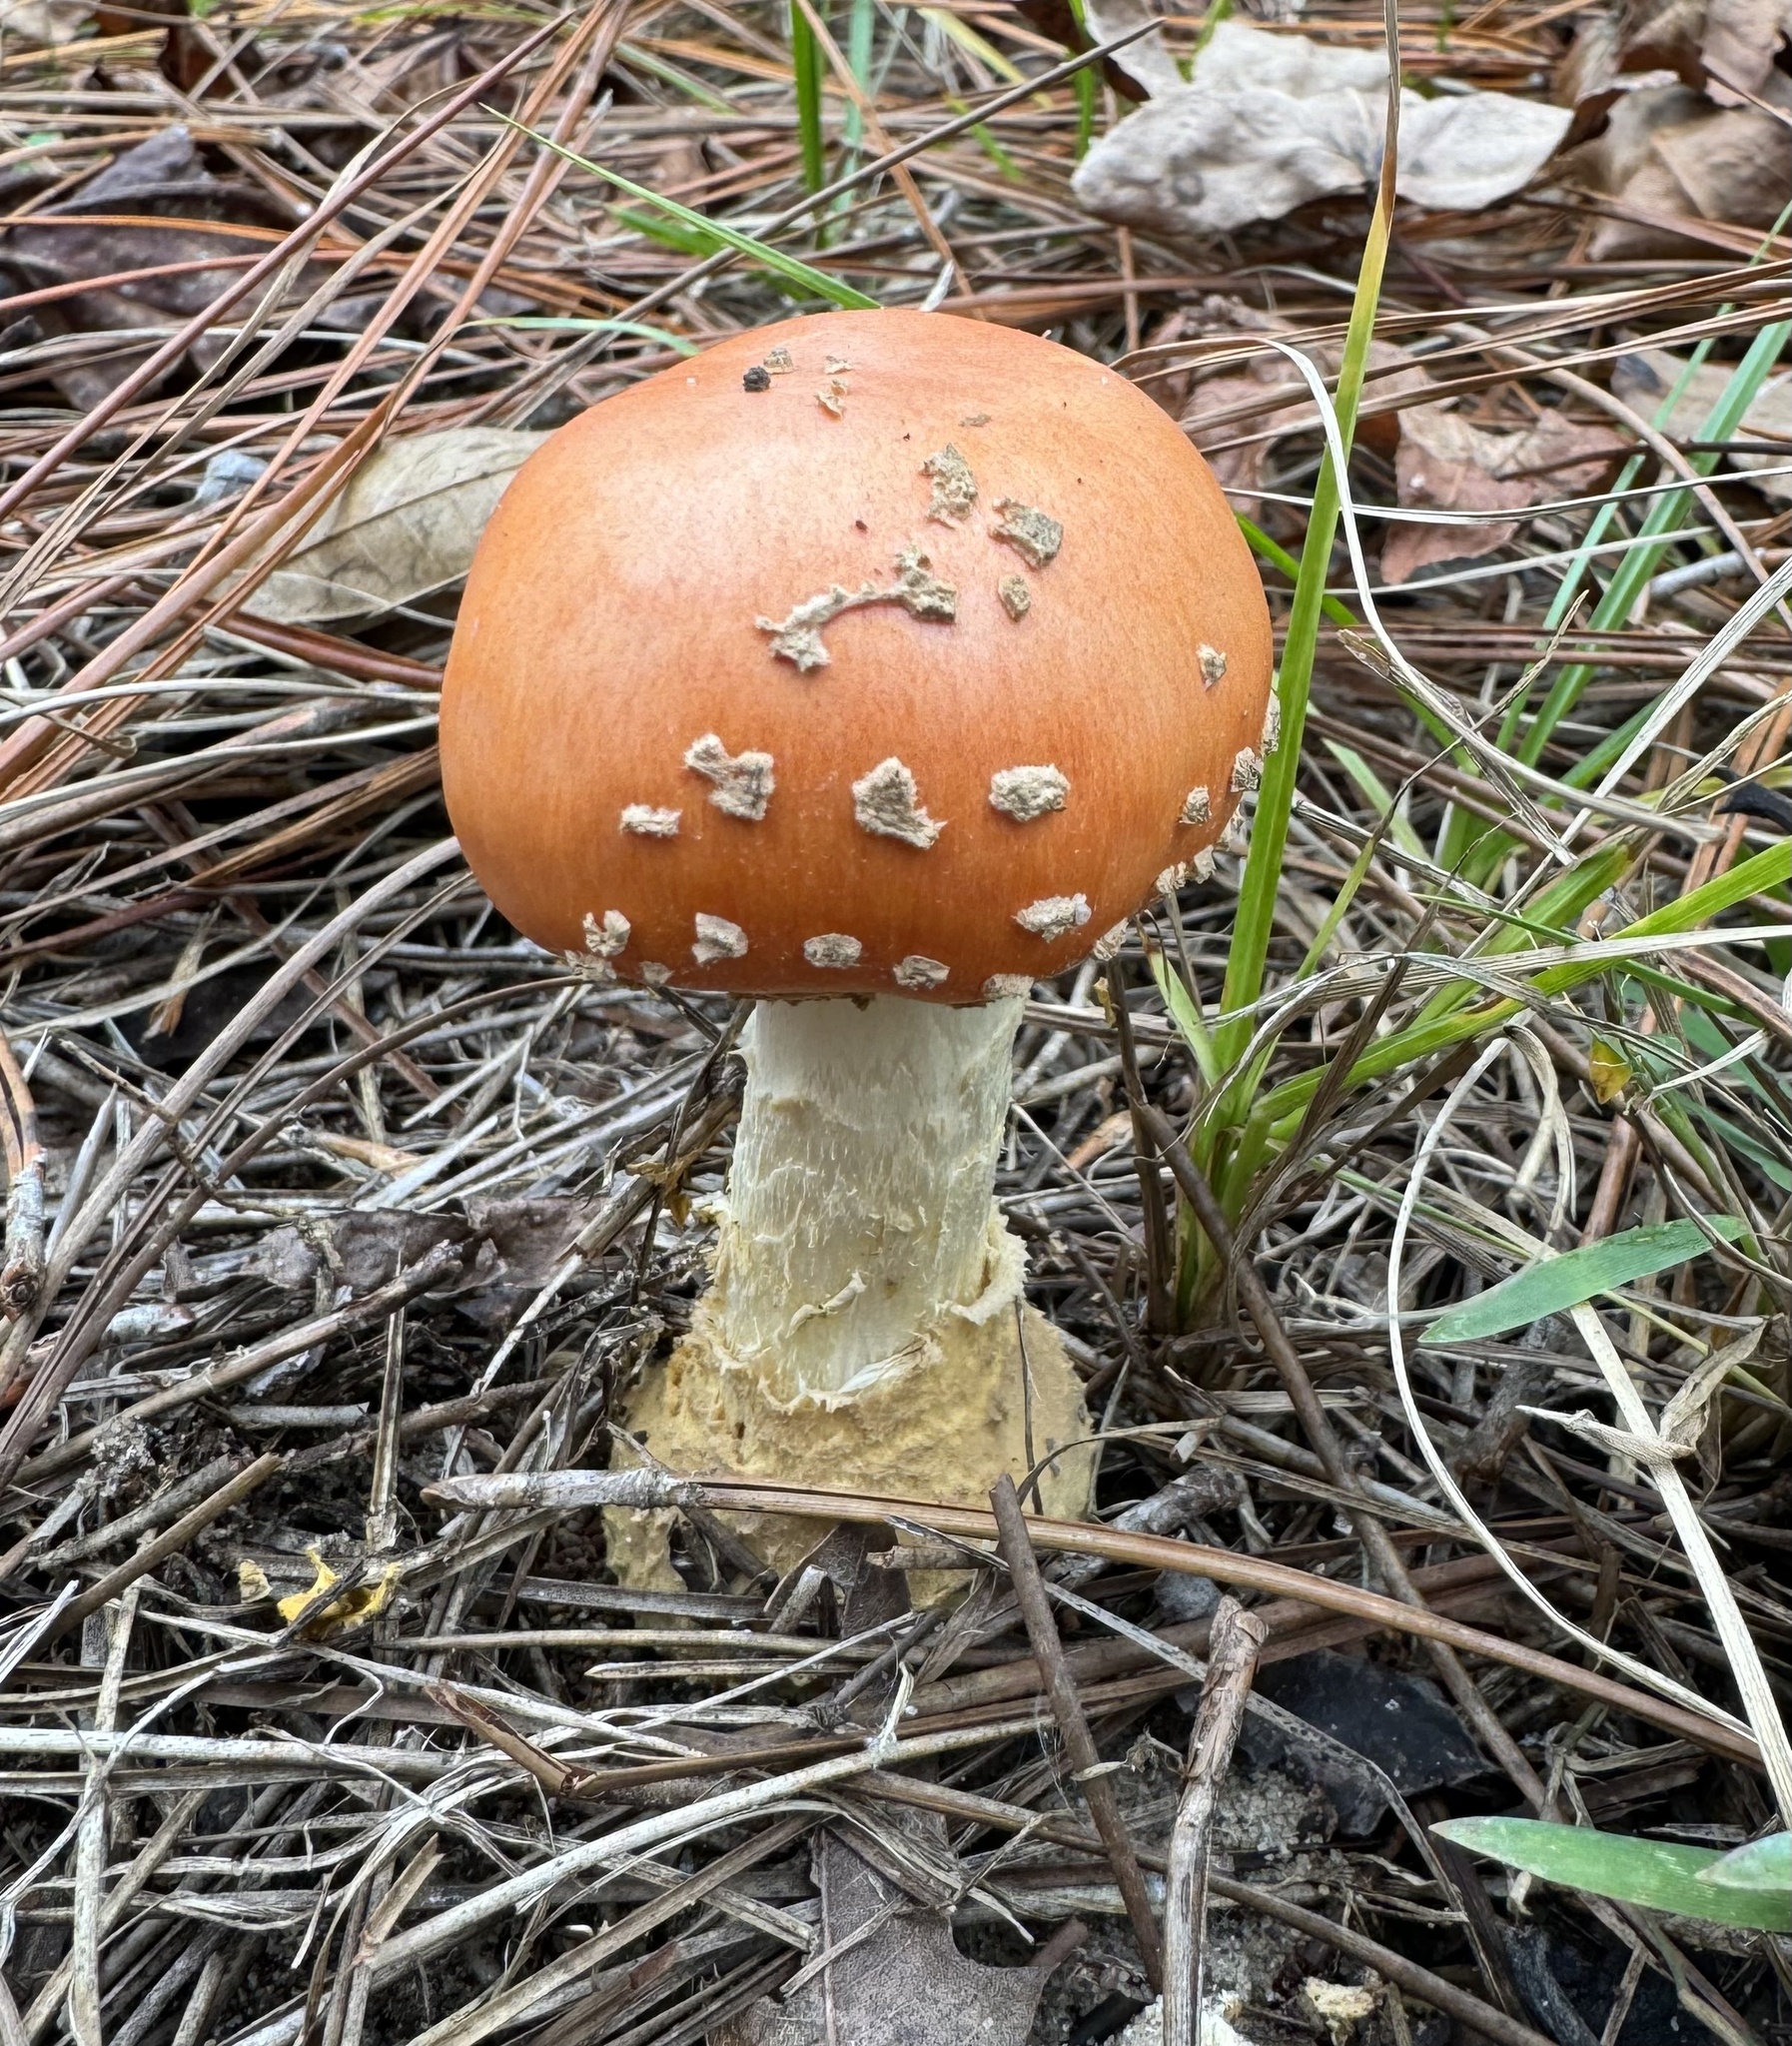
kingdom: Fungi
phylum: Basidiomycota
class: Agaricomycetes
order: Agaricales
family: Amanitaceae
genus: Amanita
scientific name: Amanita persicina
